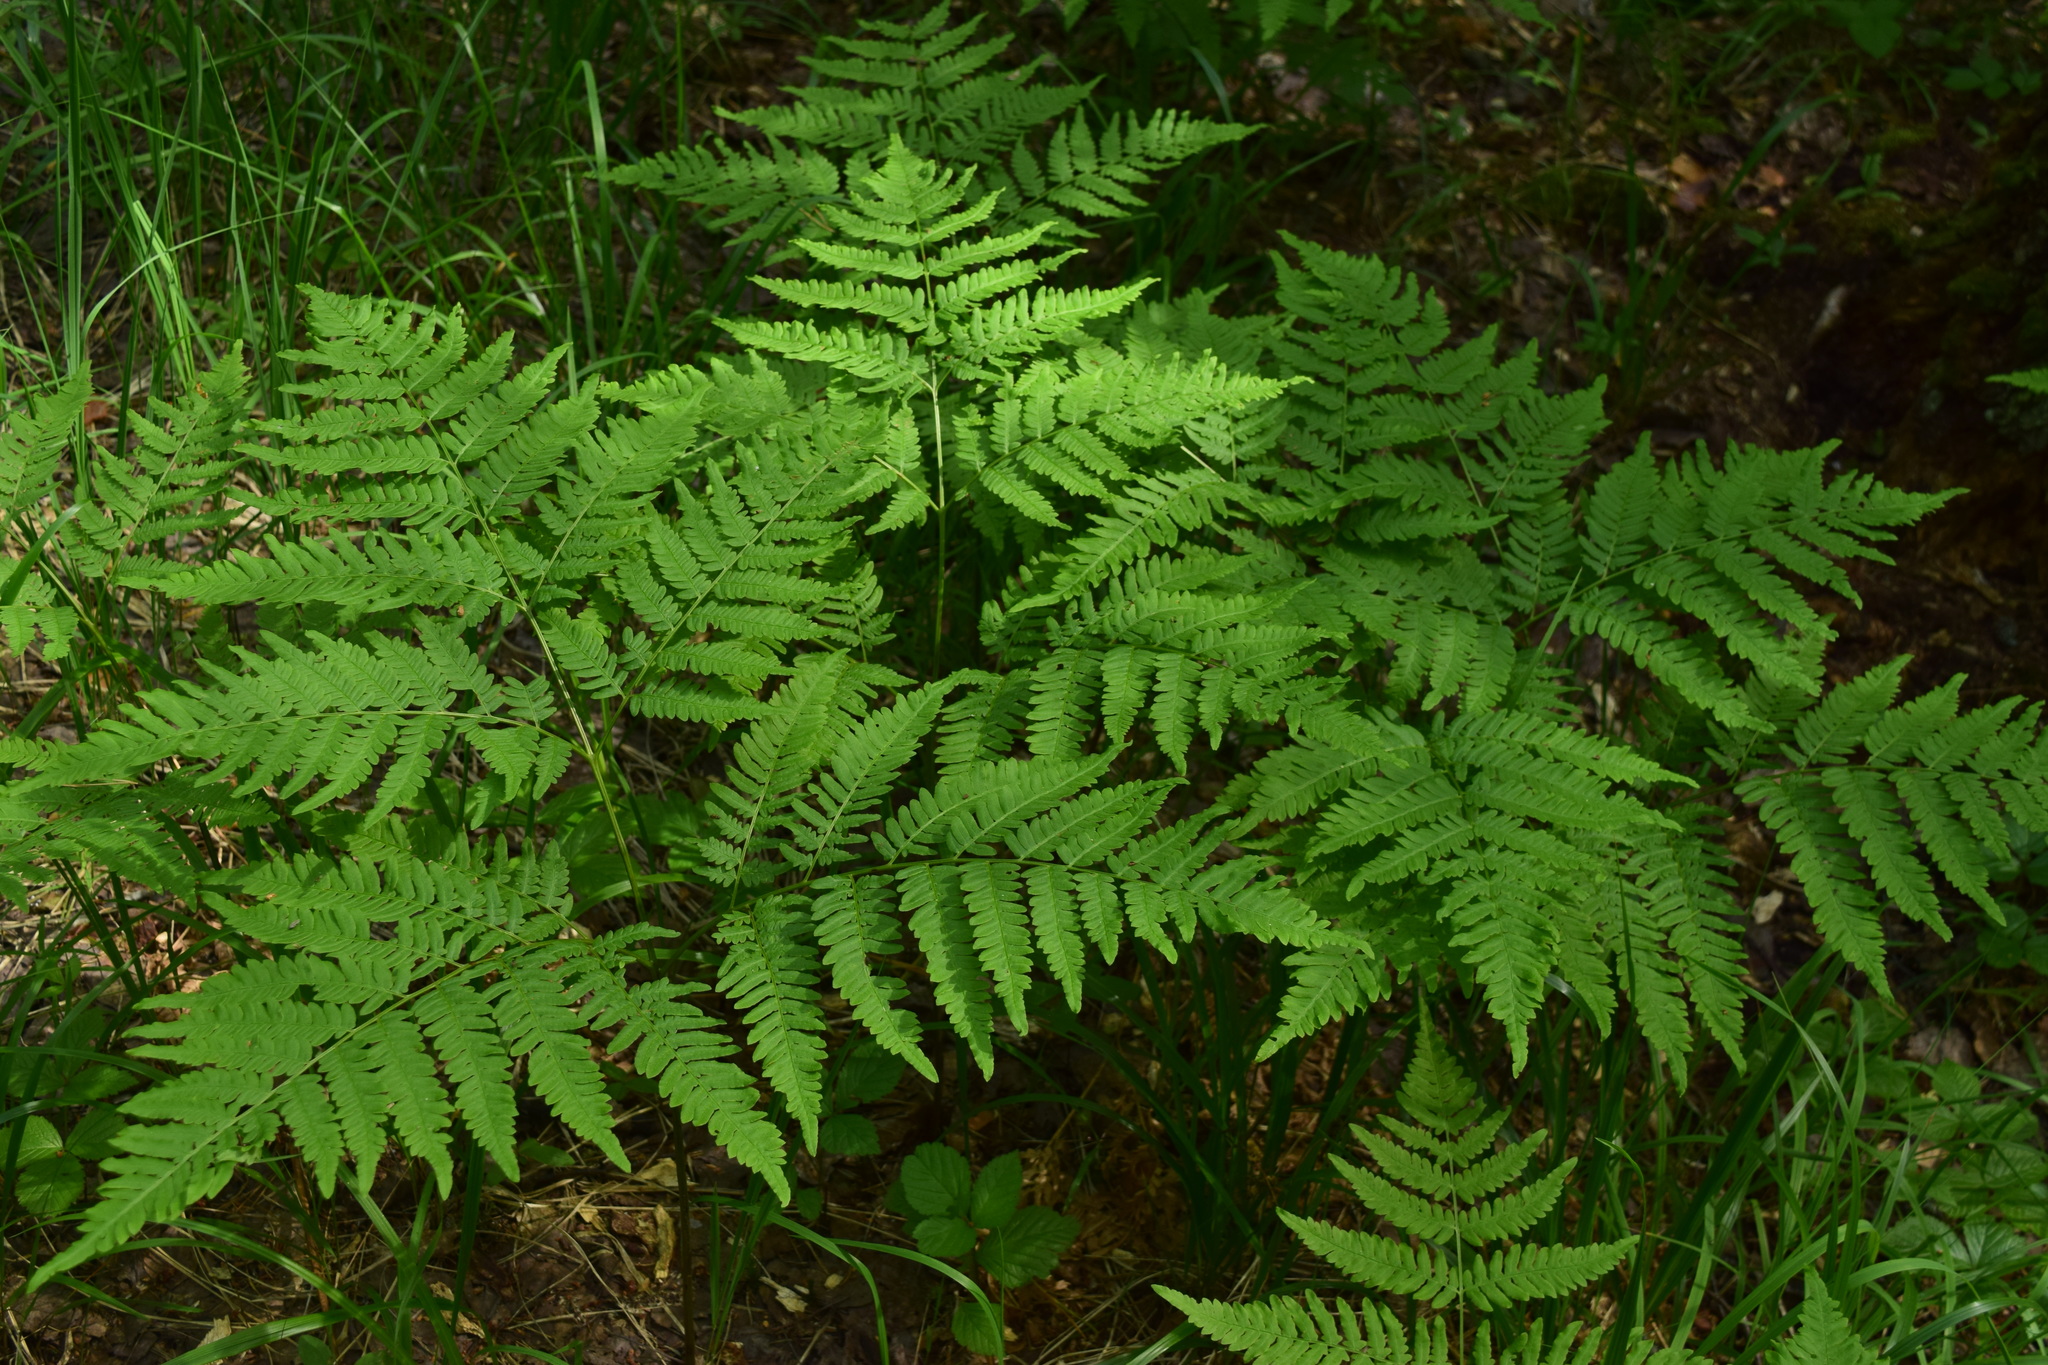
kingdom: Plantae
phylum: Tracheophyta
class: Polypodiopsida
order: Polypodiales
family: Dennstaedtiaceae
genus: Pteridium
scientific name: Pteridium aquilinum
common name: Bracken
